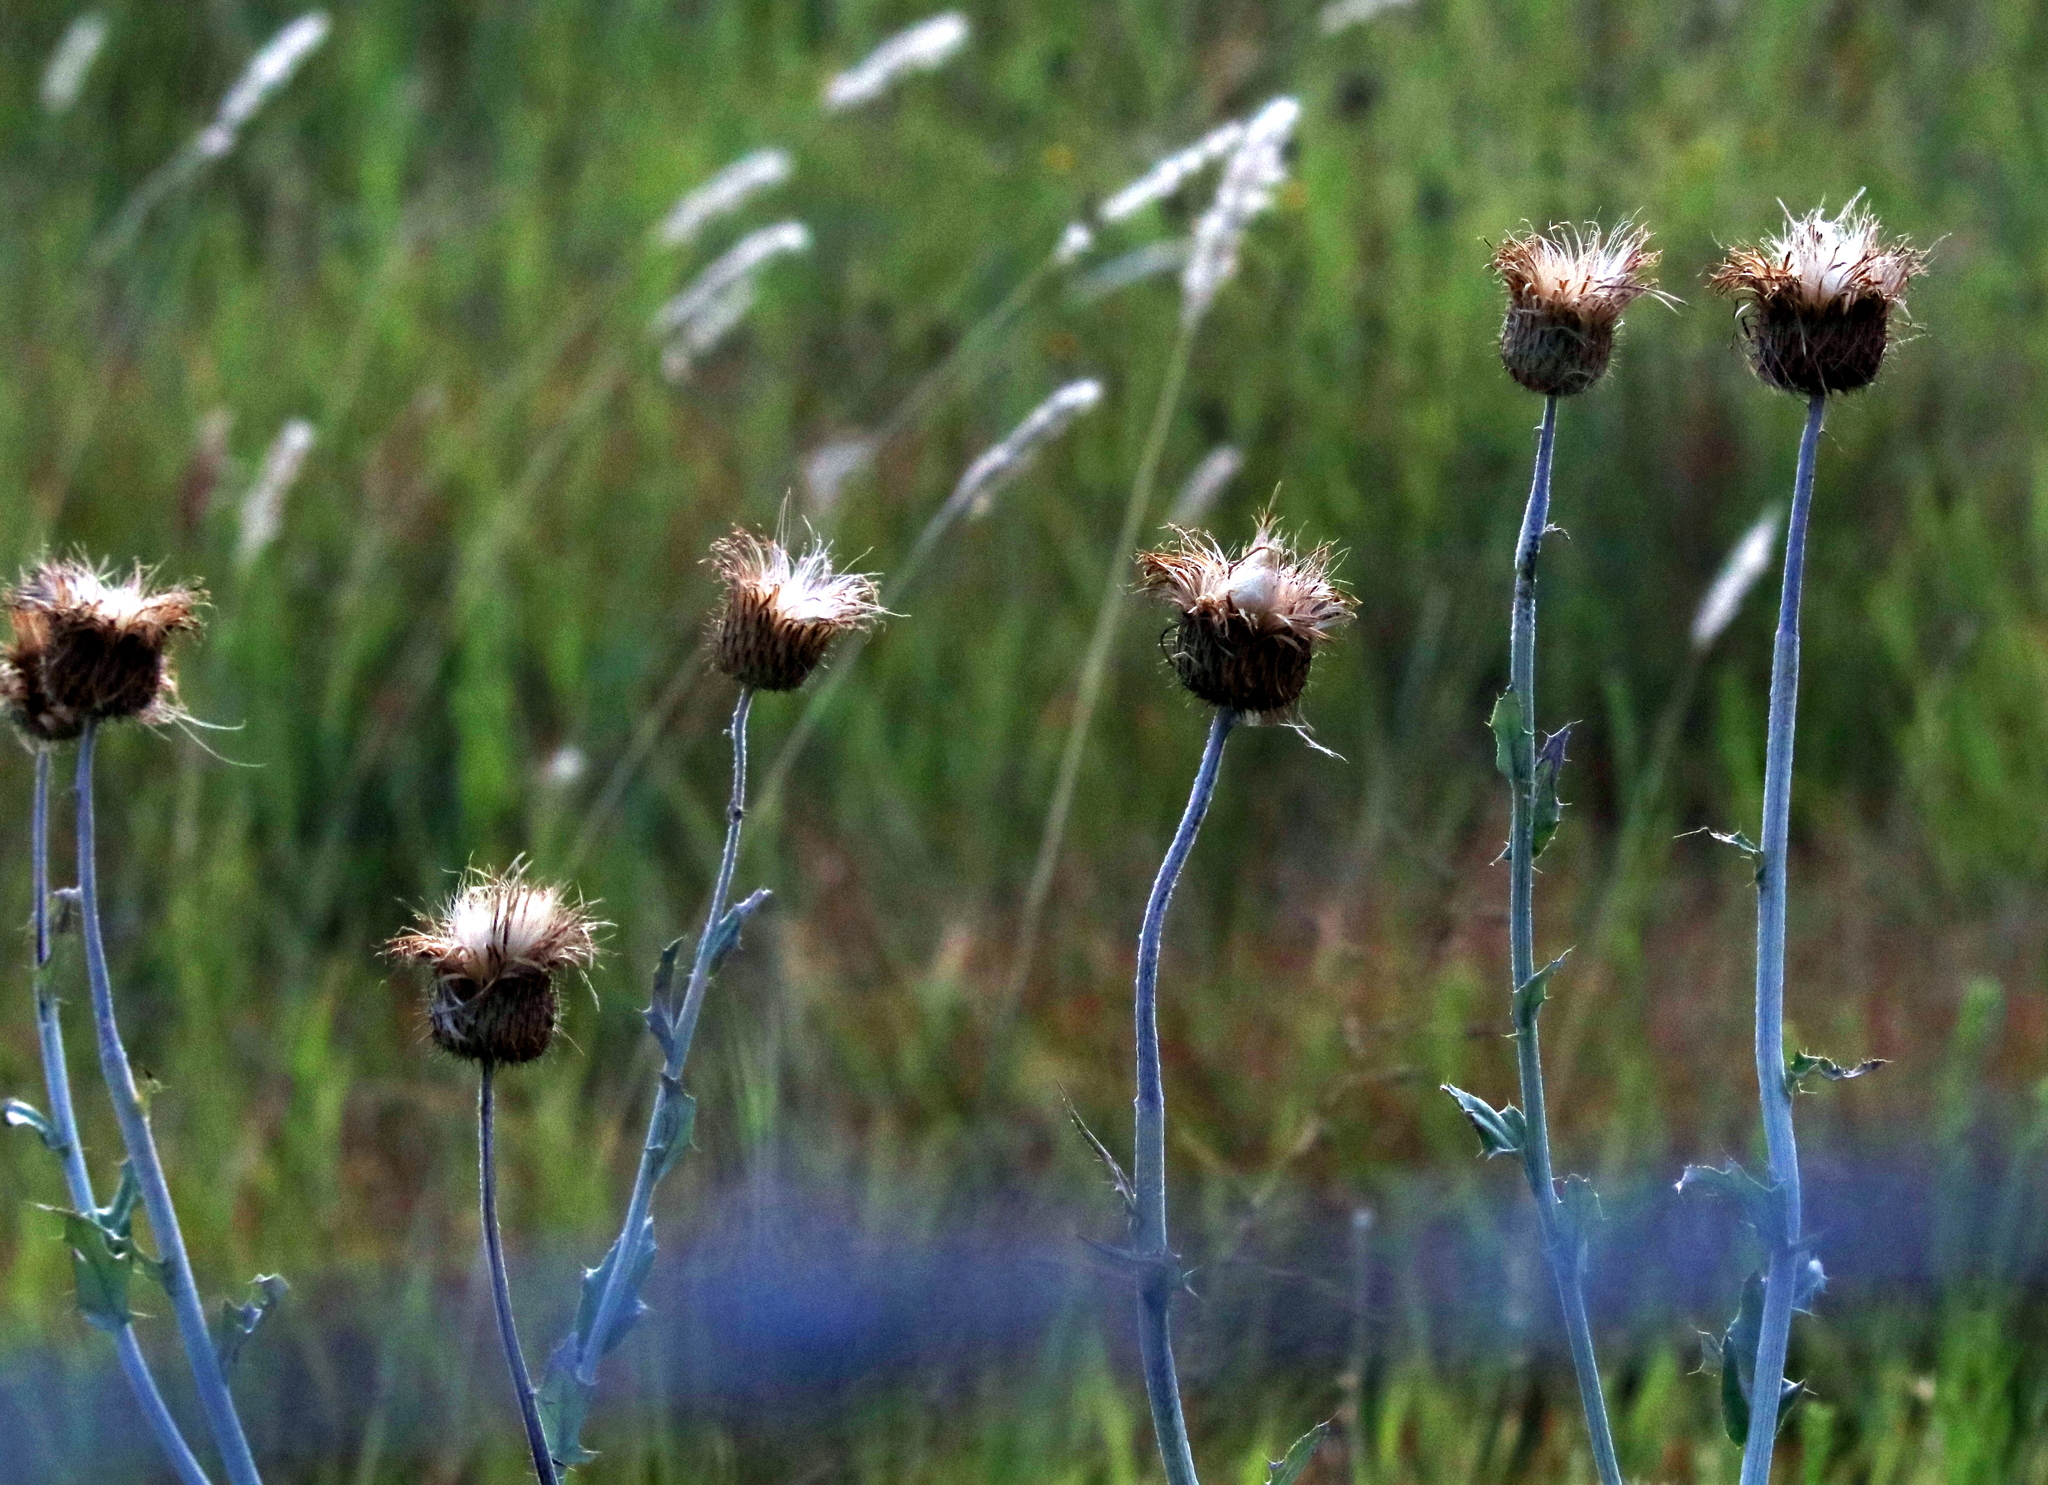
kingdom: Plantae
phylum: Tracheophyta
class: Magnoliopsida
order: Asterales
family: Asteraceae
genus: Cirsium
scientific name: Cirsium undulatum
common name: Pasture thistle
